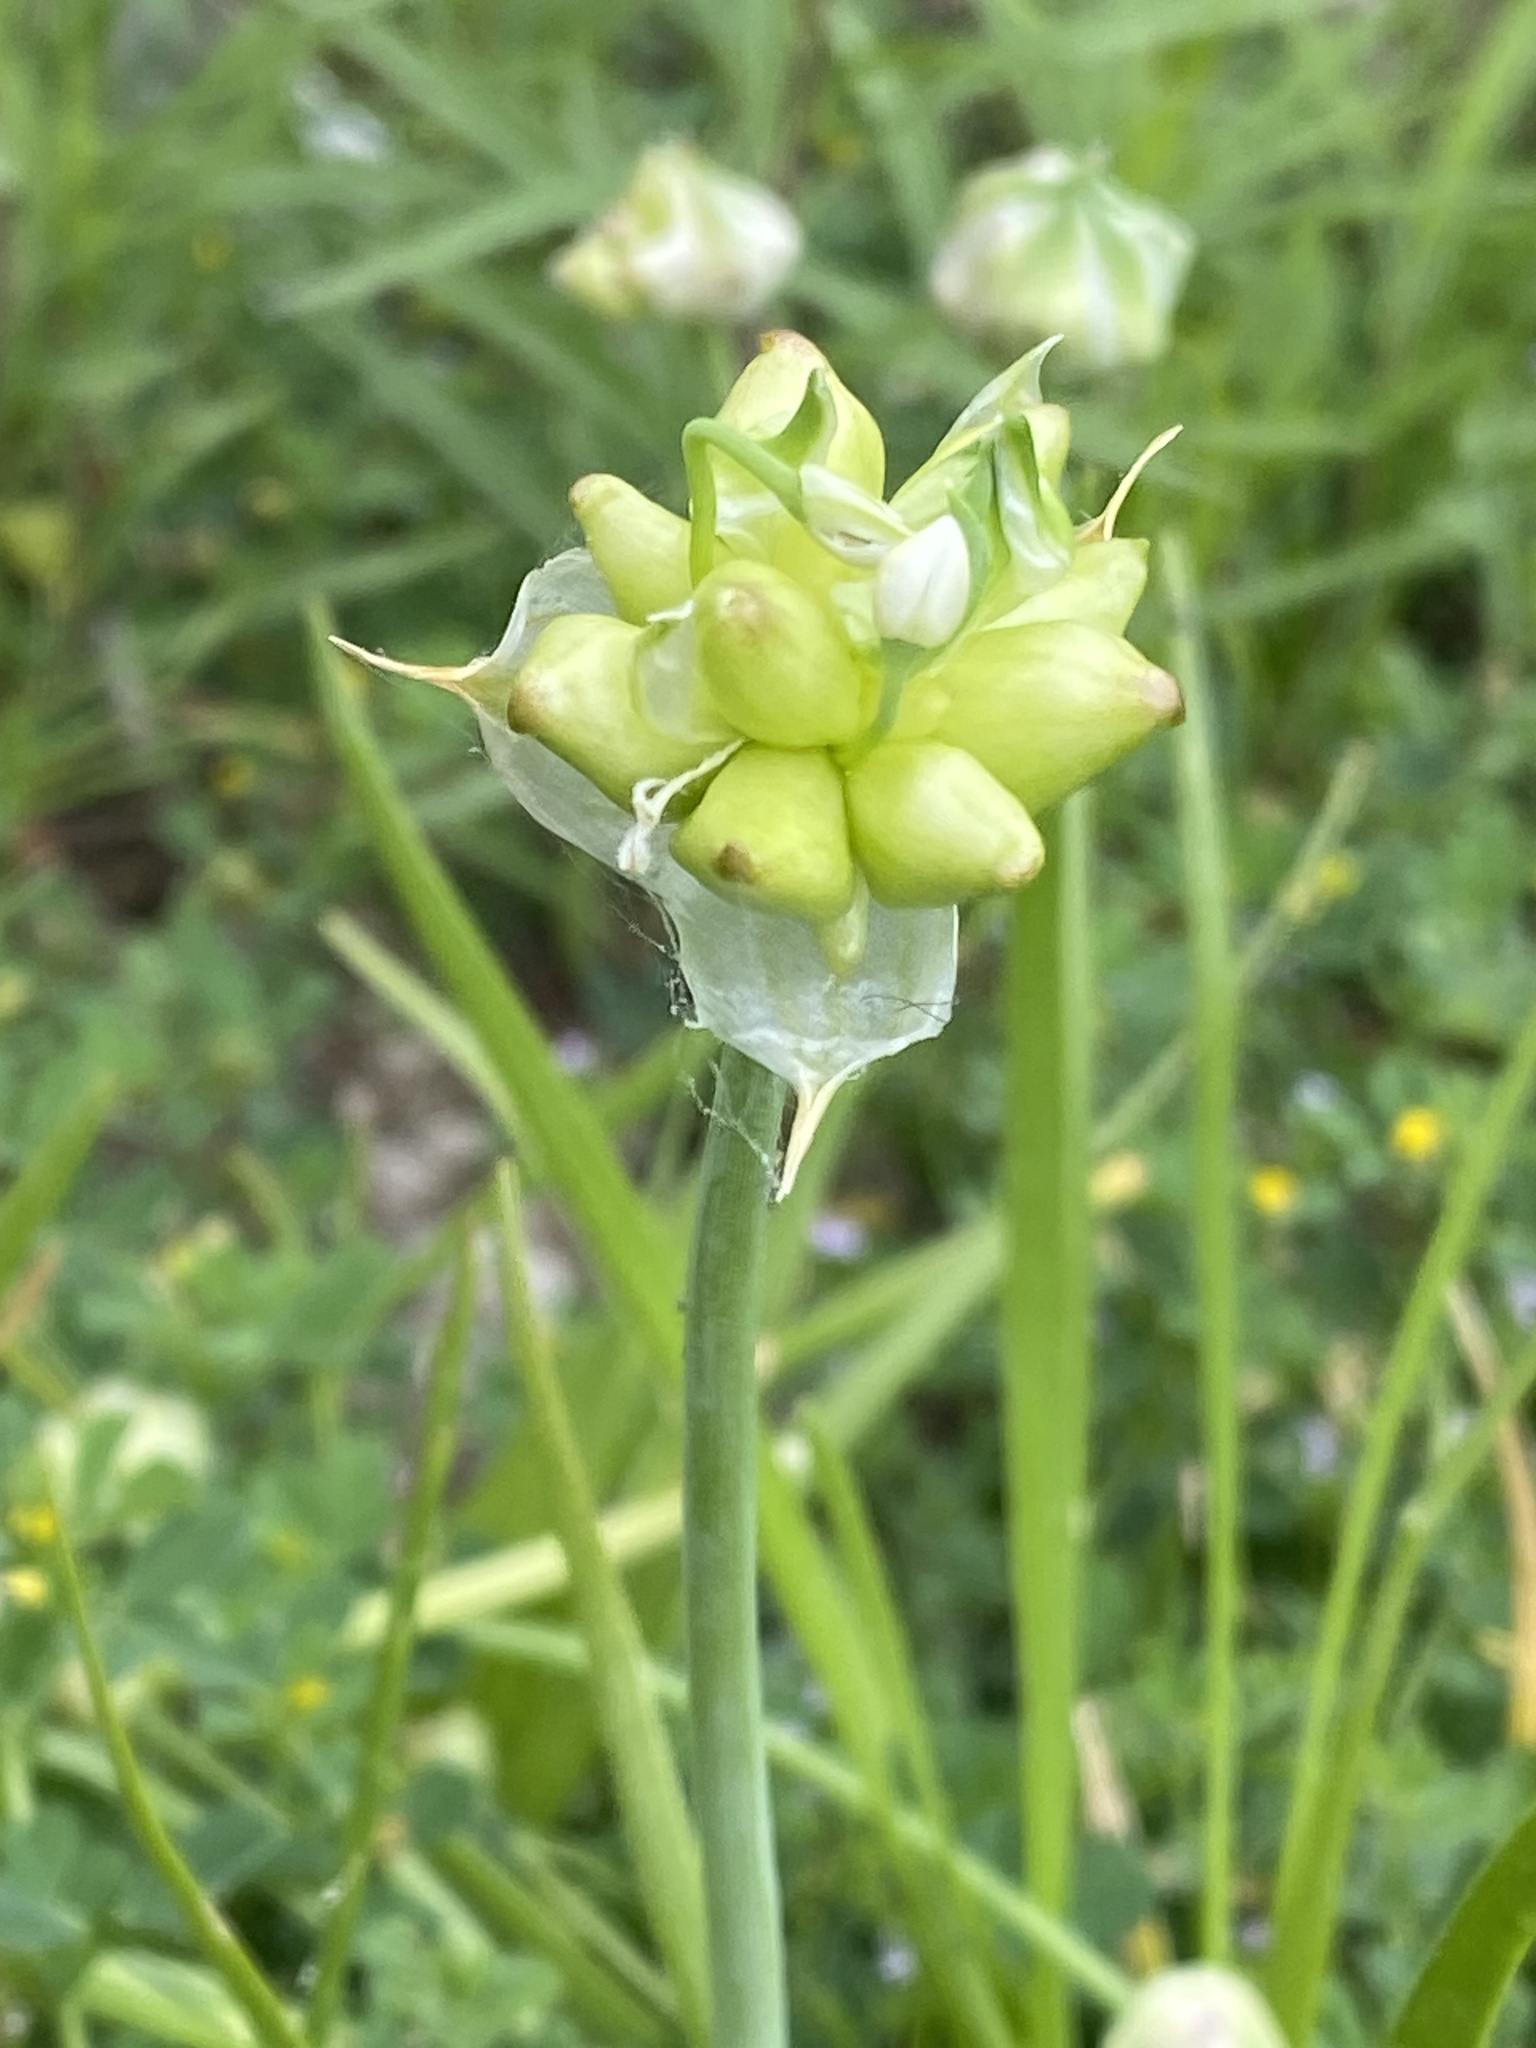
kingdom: Plantae
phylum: Tracheophyta
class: Liliopsida
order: Asparagales
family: Amaryllidaceae
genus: Allium
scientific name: Allium canadense
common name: Meadow garlic
